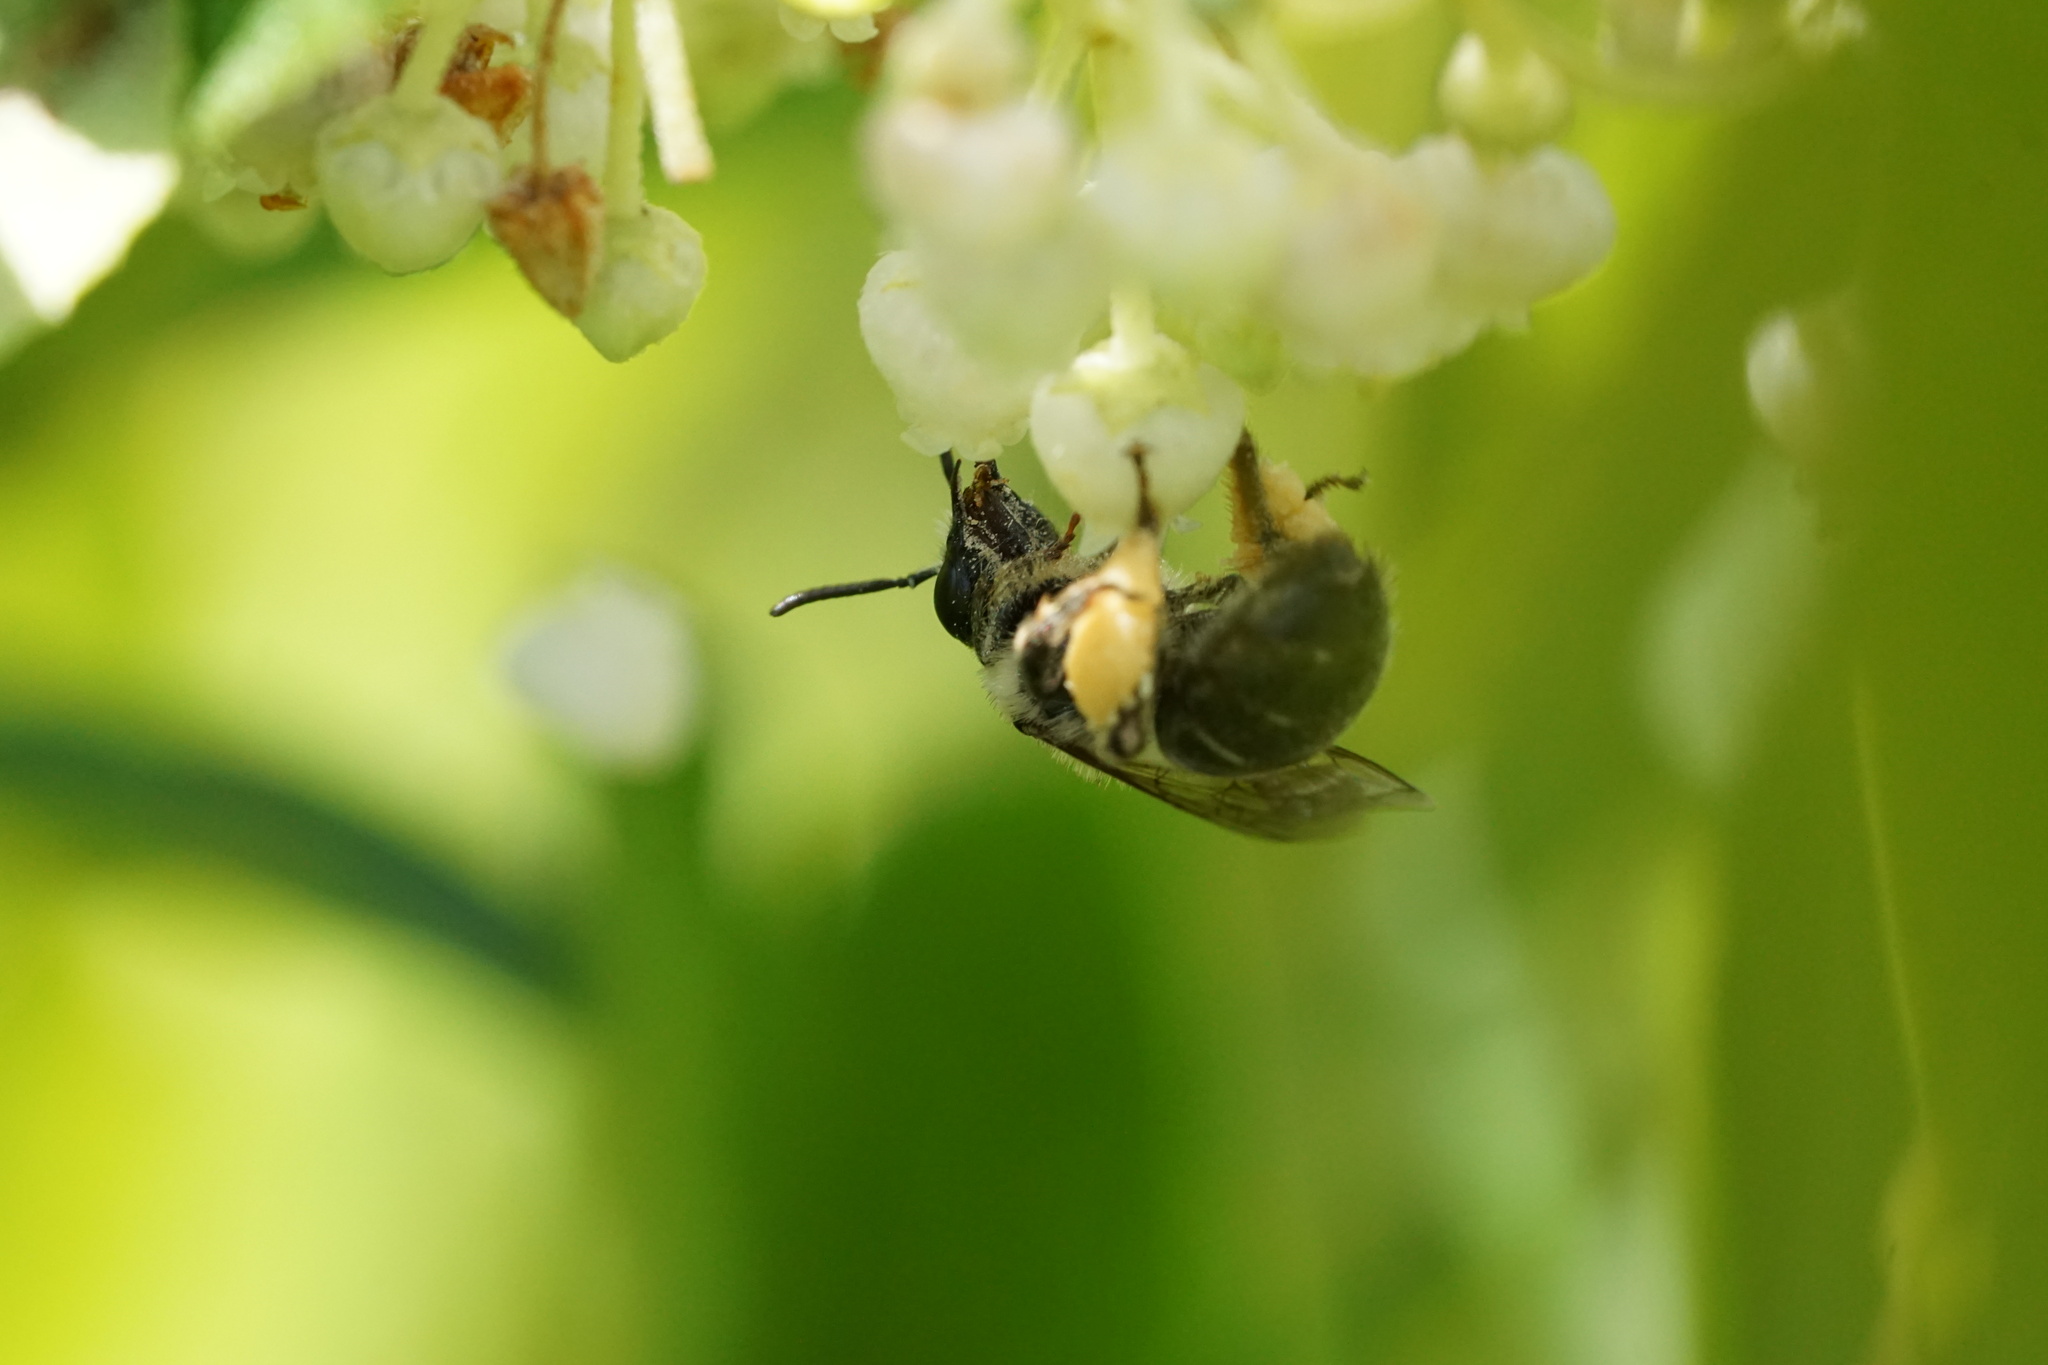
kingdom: Animalia
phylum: Arthropoda
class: Insecta
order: Hymenoptera
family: Melittidae
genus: Melitta
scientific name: Melitta melittoides
